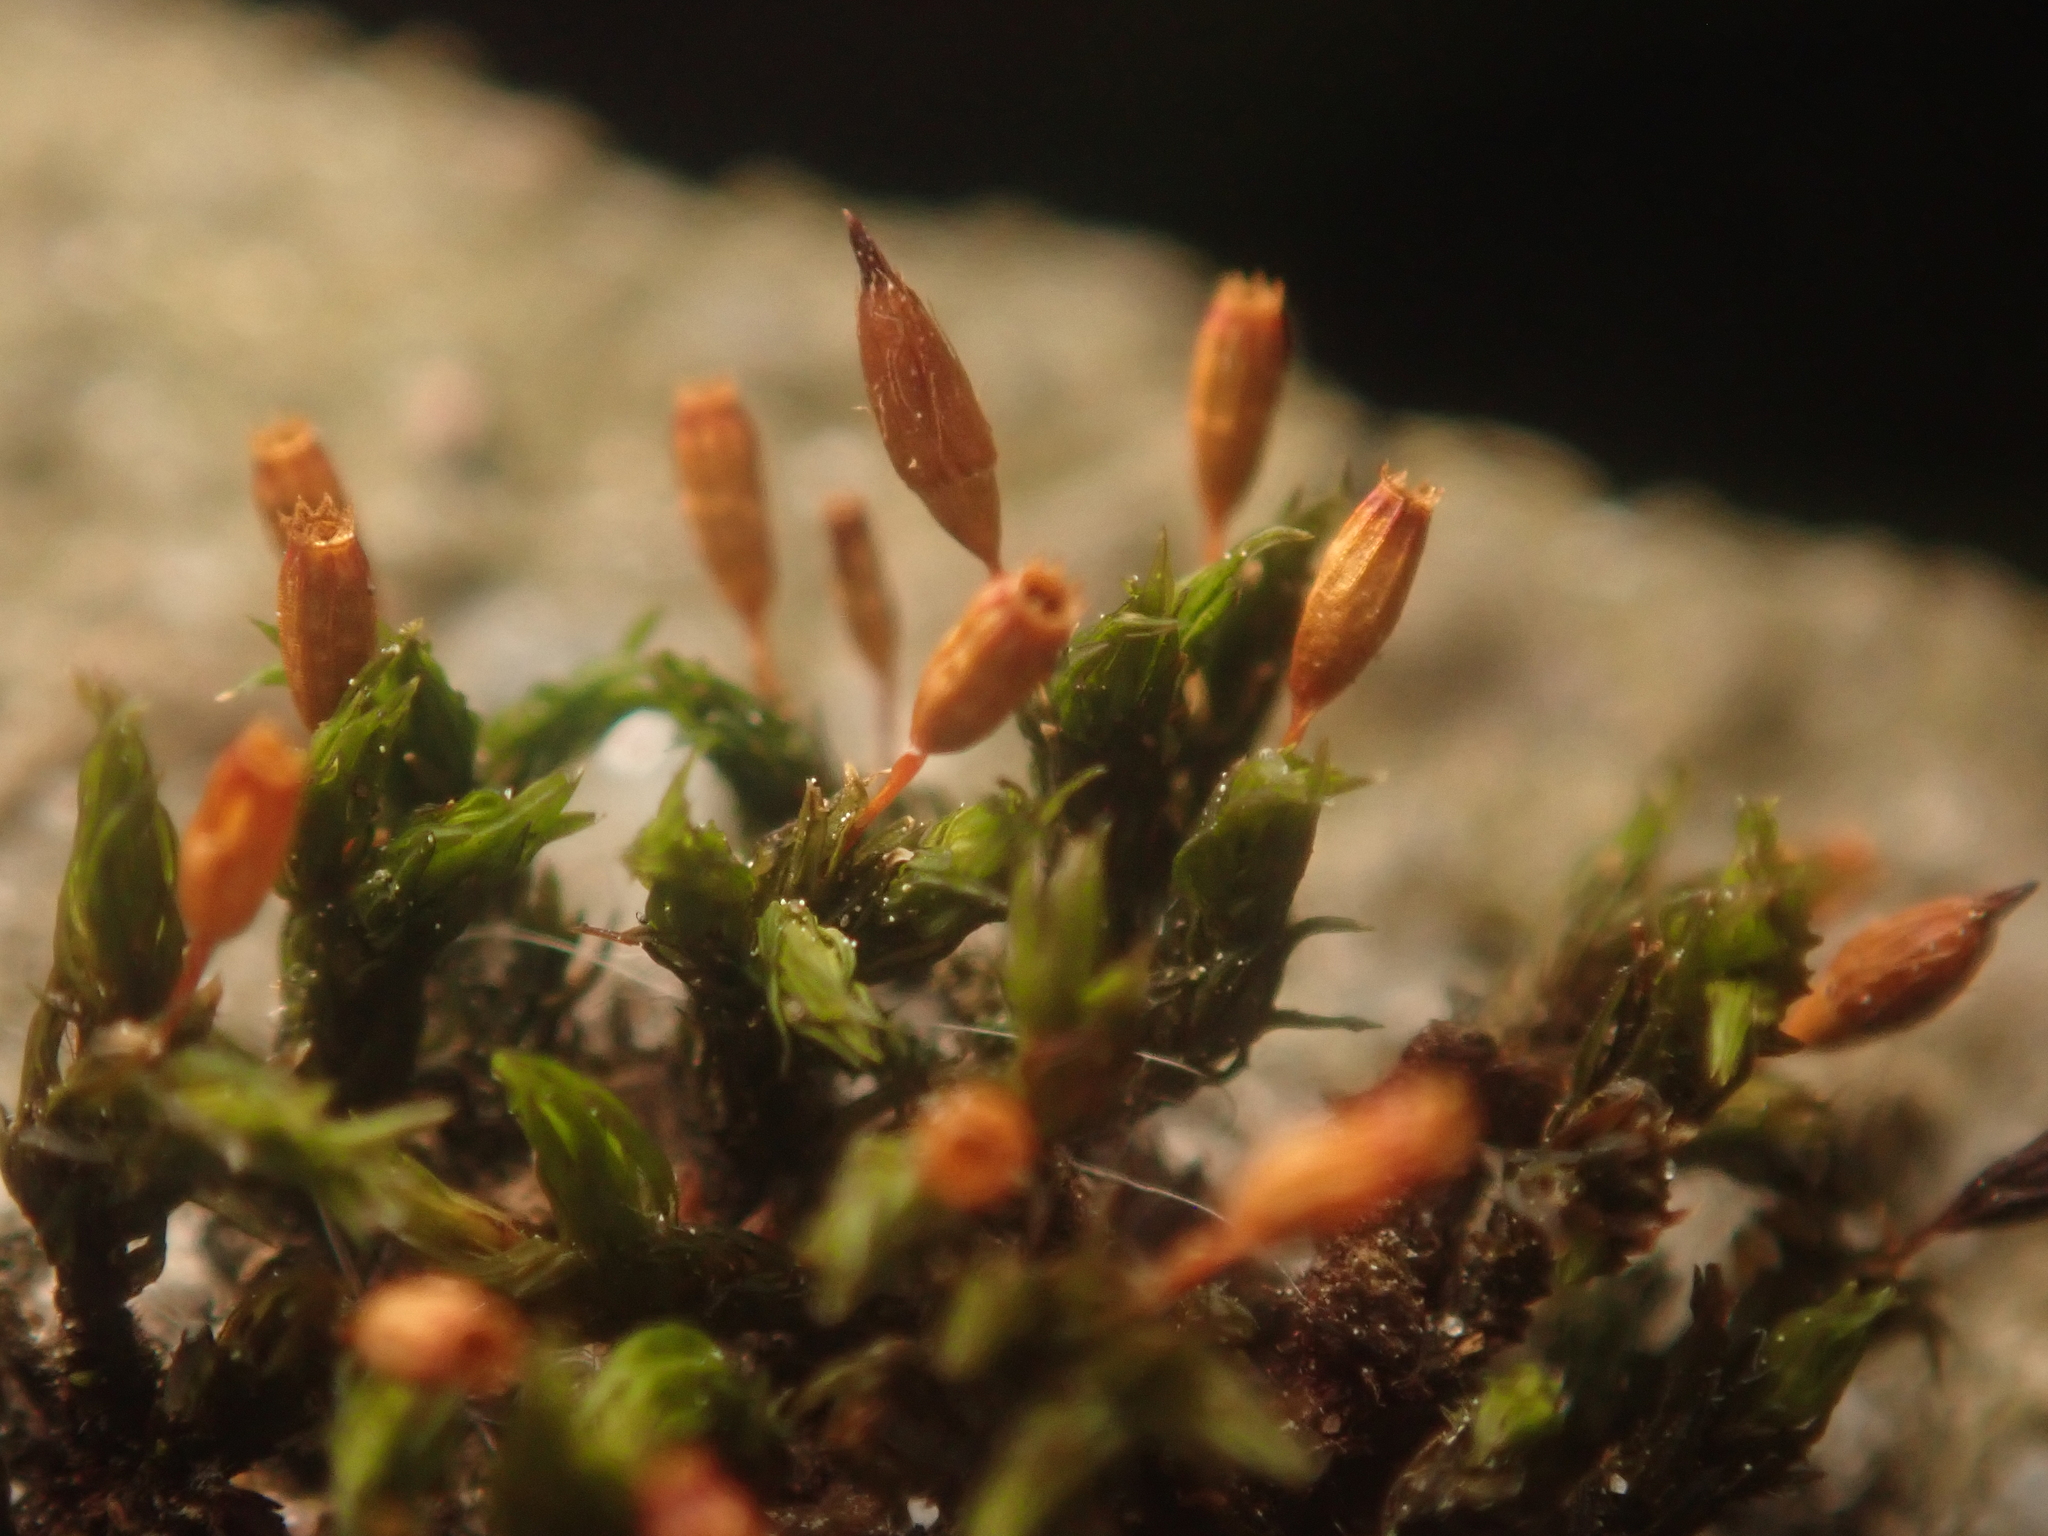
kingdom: Plantae
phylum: Bryophyta
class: Bryopsida
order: Orthotrichales
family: Orthotrichaceae
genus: Orthotrichum
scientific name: Orthotrichum anomalum
